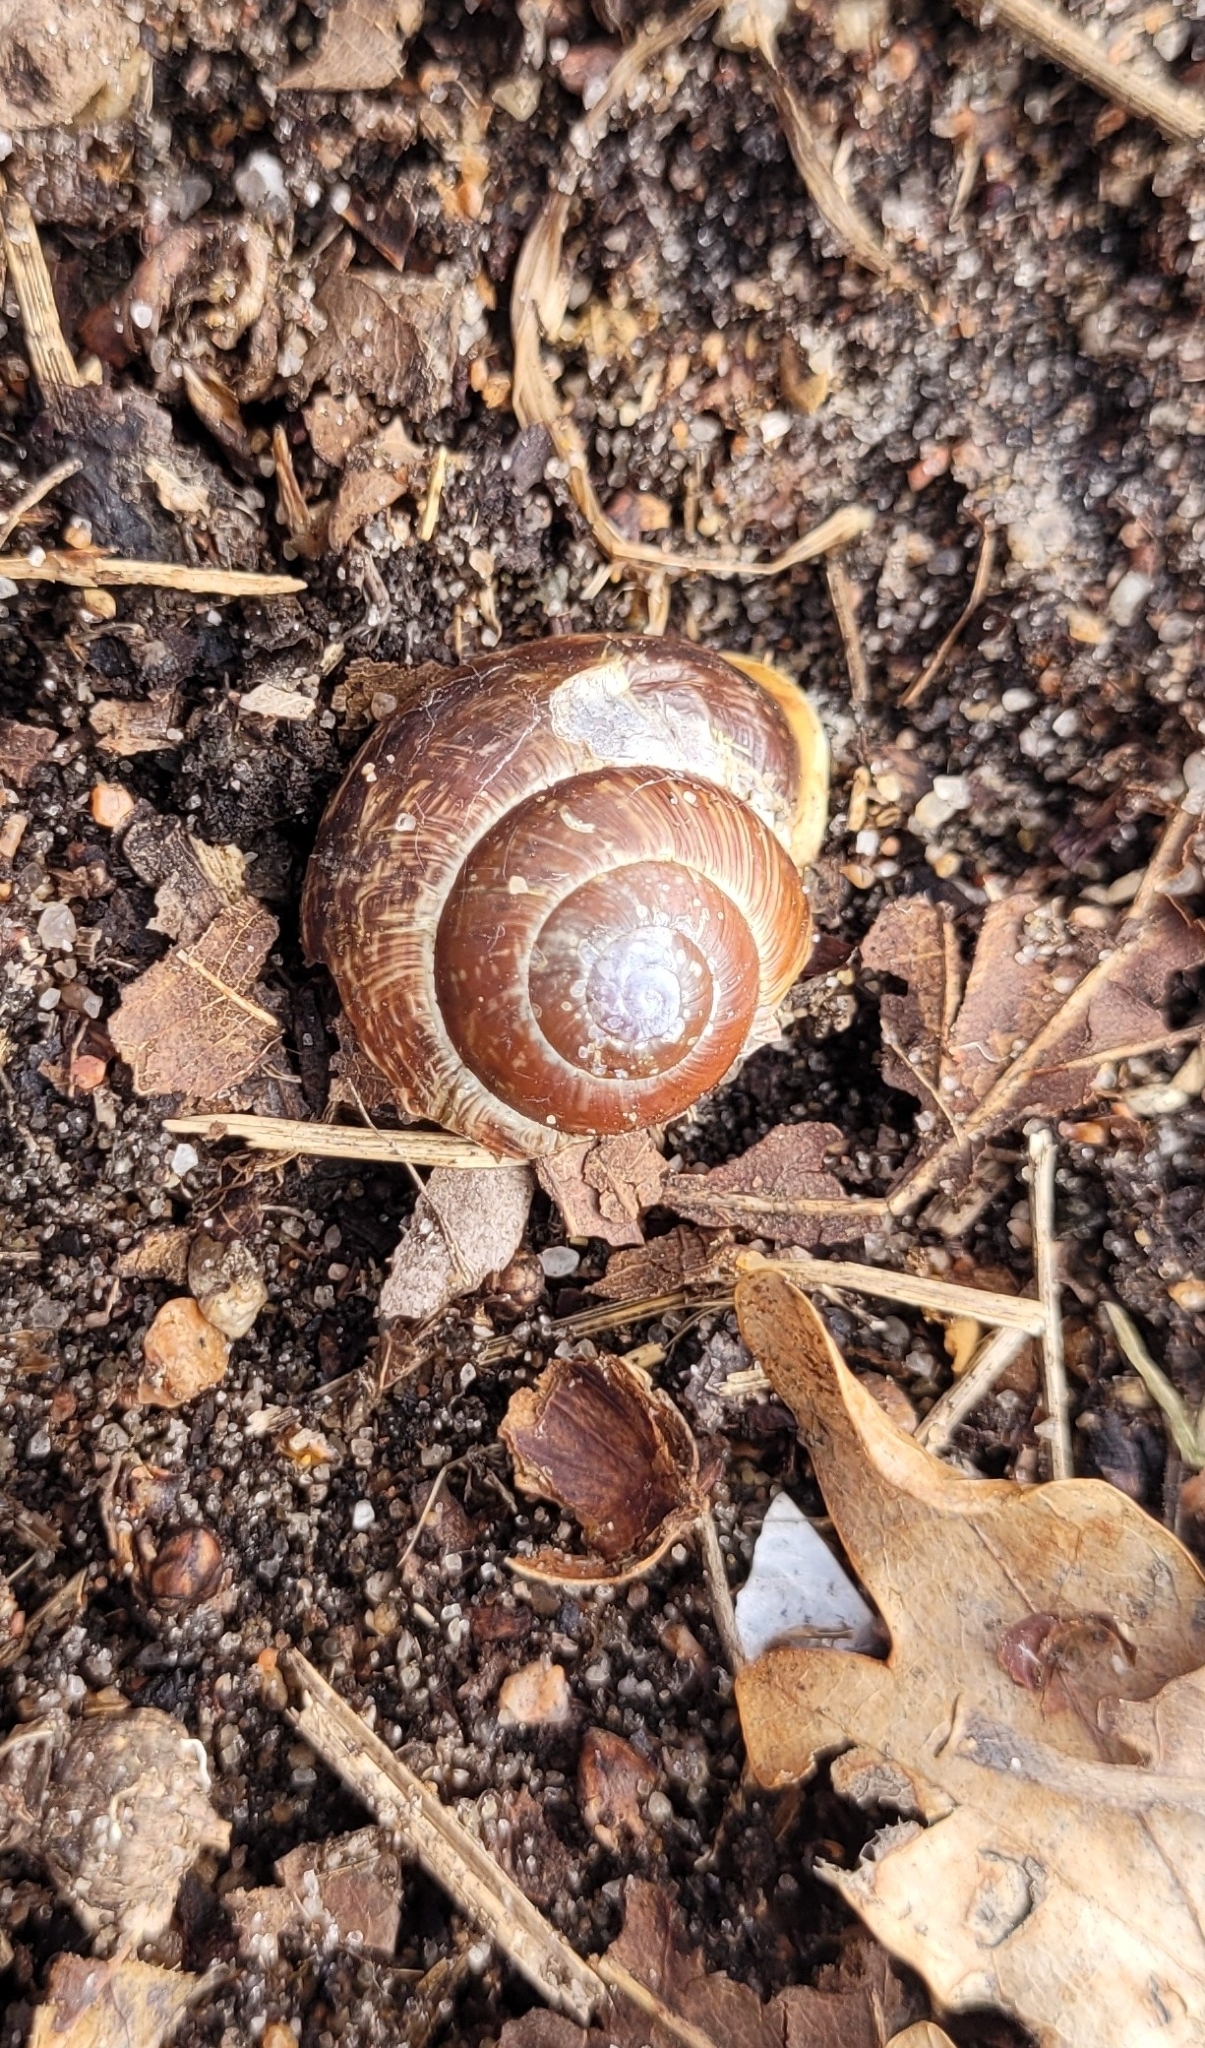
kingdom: Animalia
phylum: Mollusca
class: Gastropoda
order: Stylommatophora
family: Helicidae
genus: Arianta
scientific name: Arianta arbustorum
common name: Copse snail
